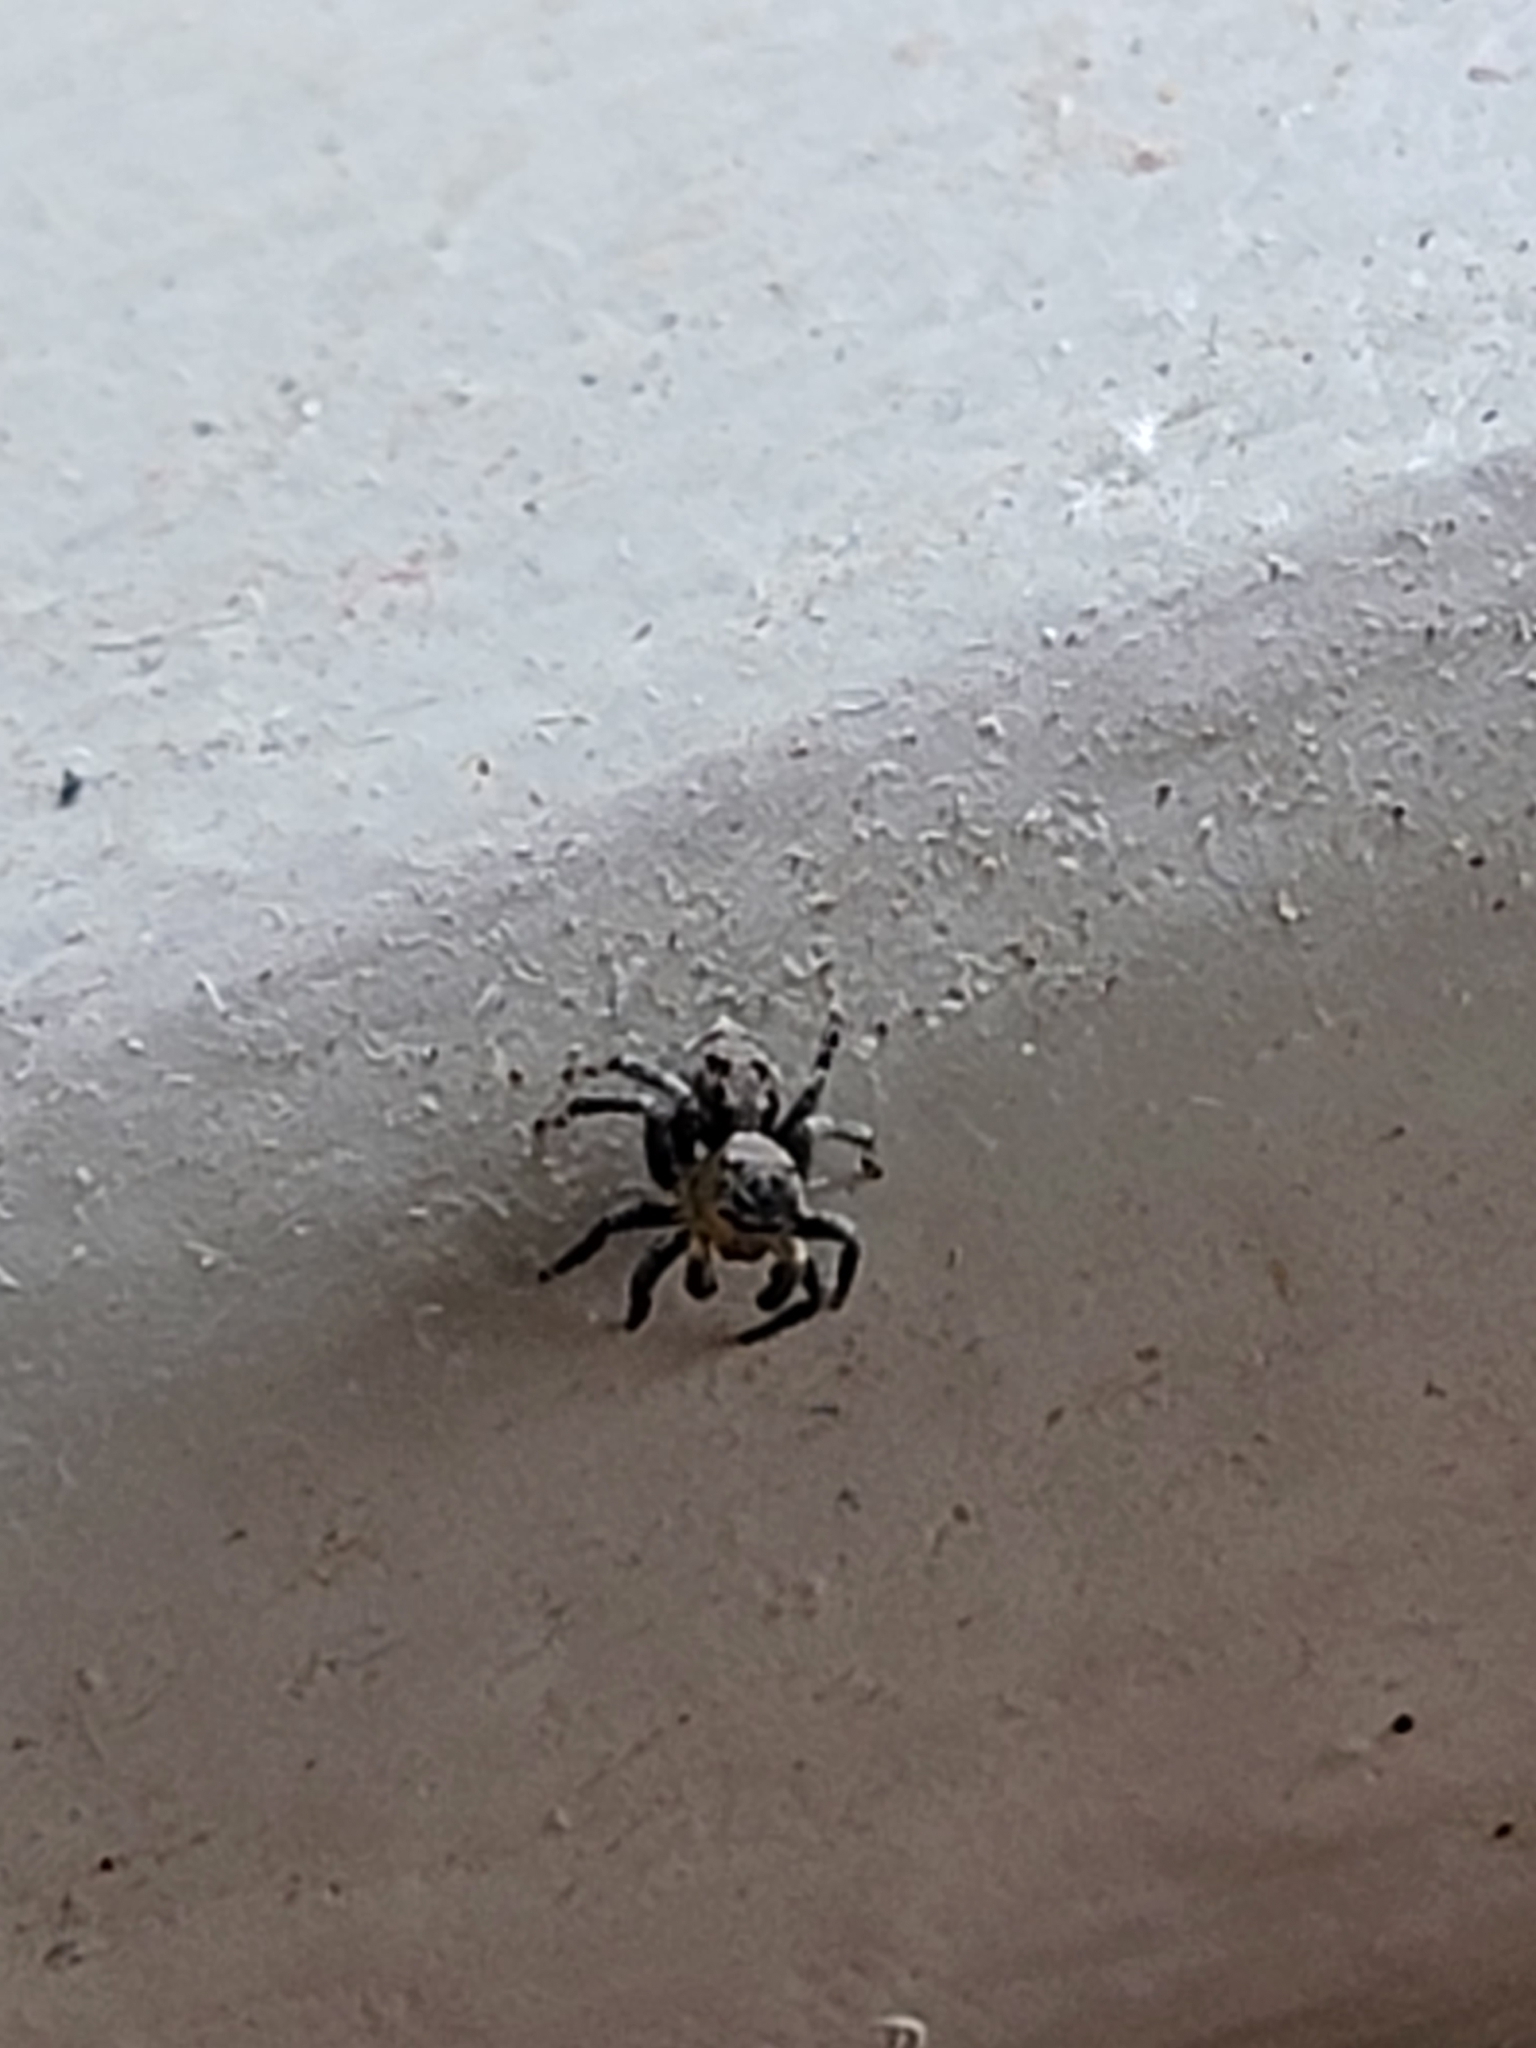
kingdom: Animalia
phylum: Arthropoda
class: Arachnida
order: Araneae
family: Salticidae
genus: Naphrys
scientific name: Naphrys pulex
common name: Flea jumping spider
